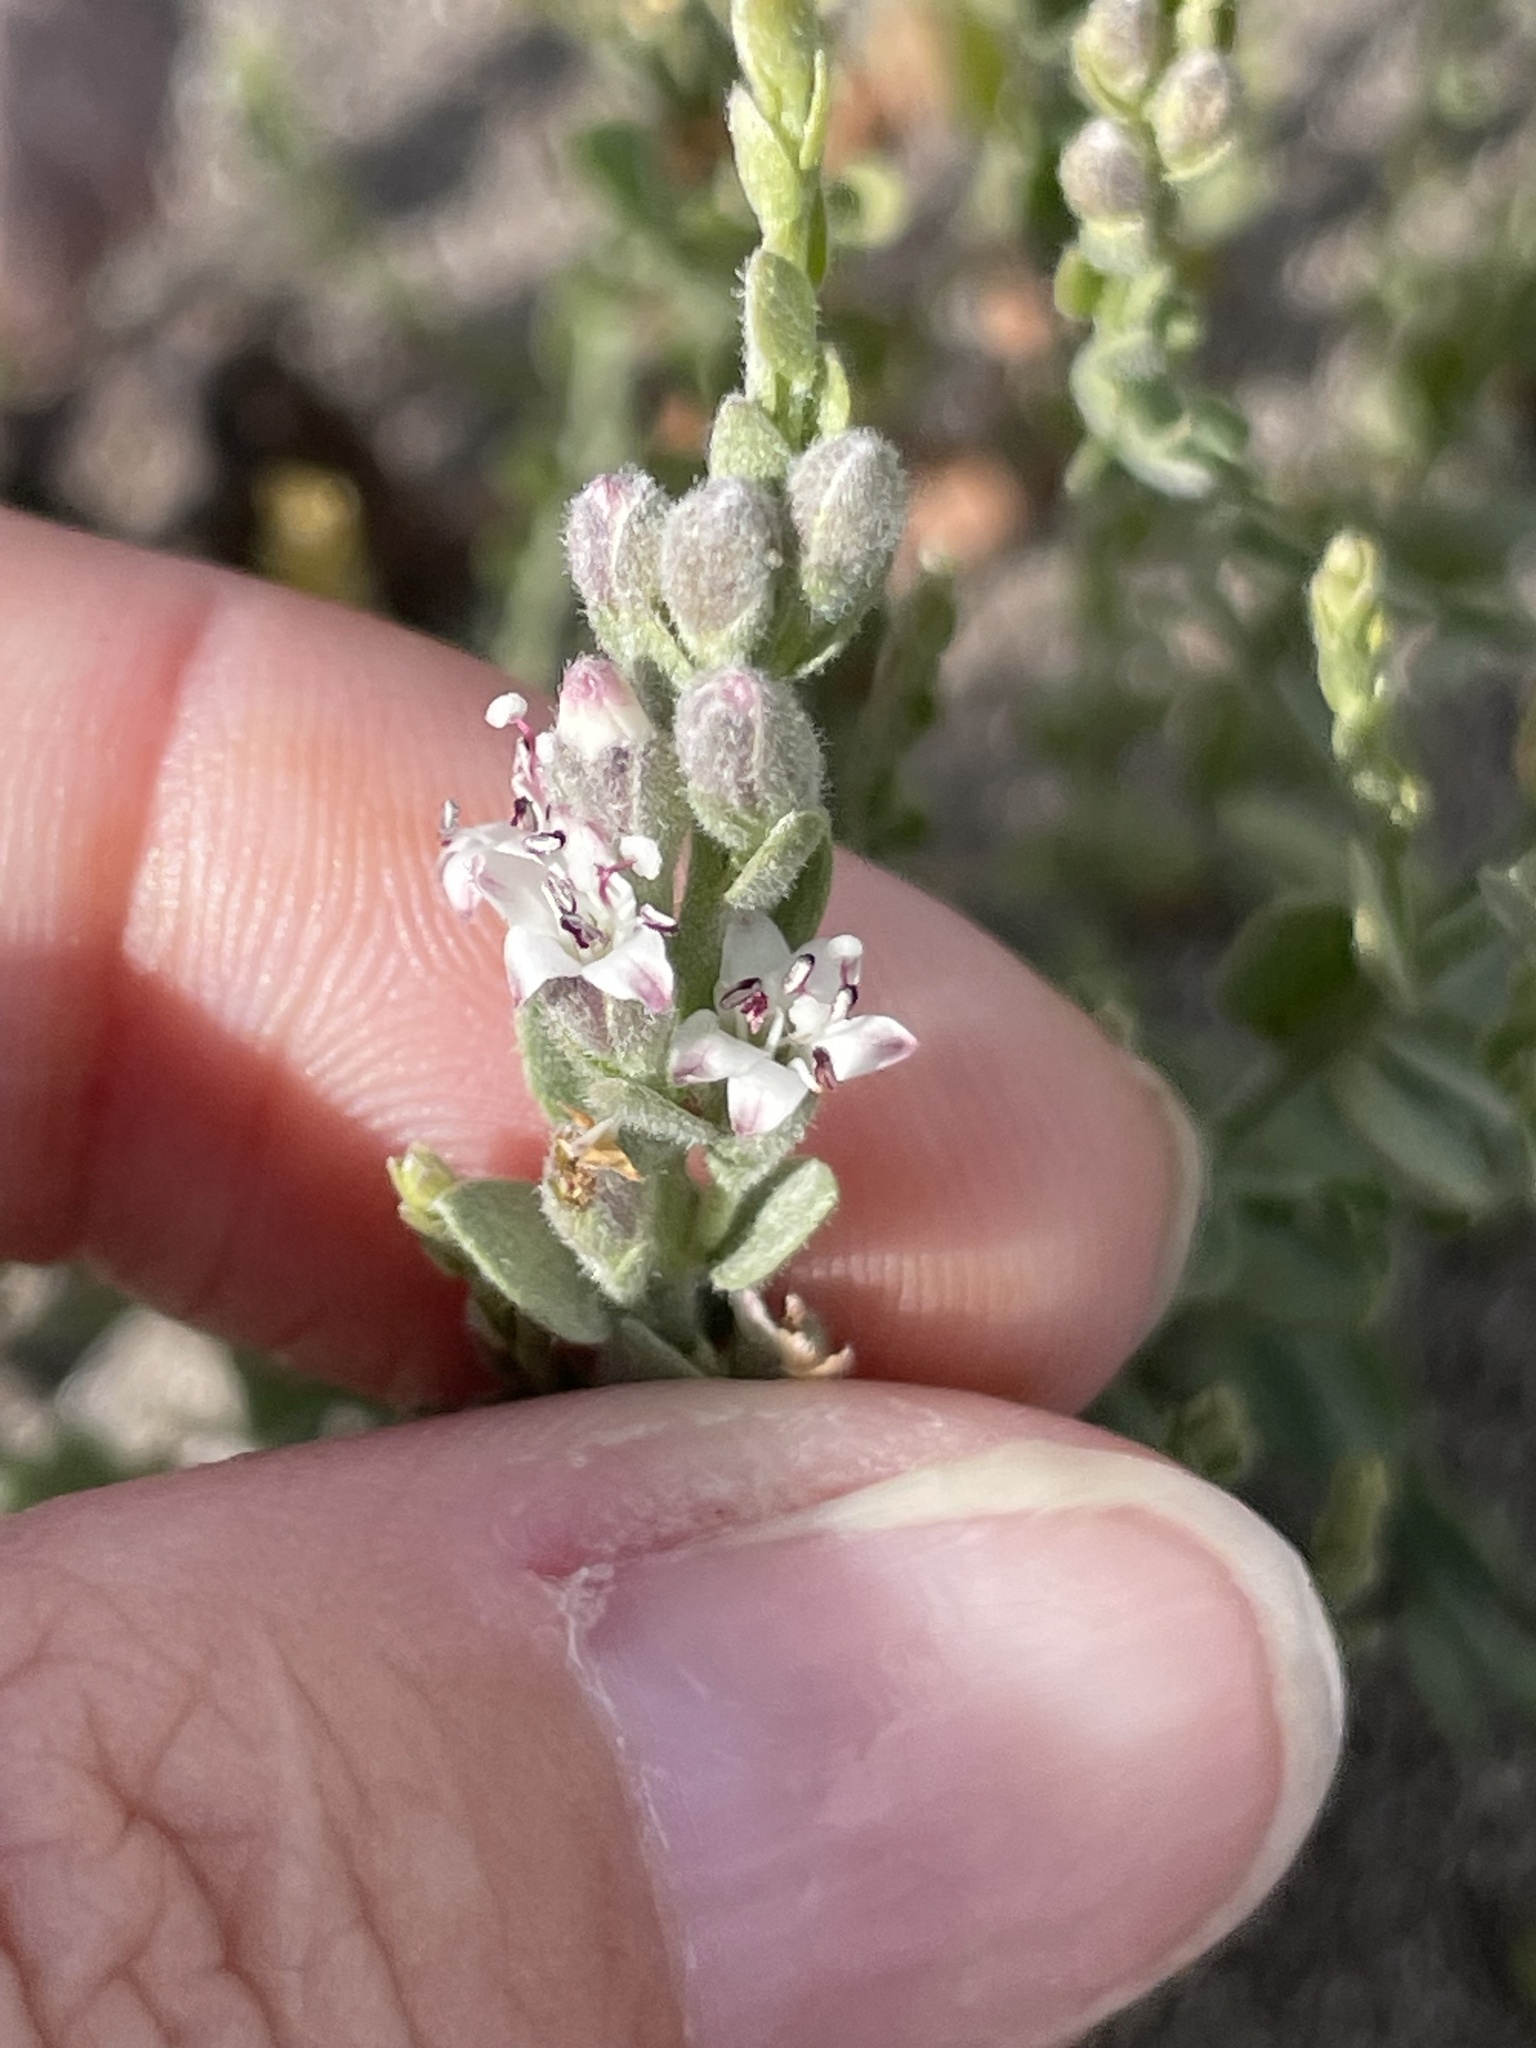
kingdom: Plantae
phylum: Tracheophyta
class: Magnoliopsida
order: Solanales
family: Convolvulaceae
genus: Cressa
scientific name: Cressa truxillensis
